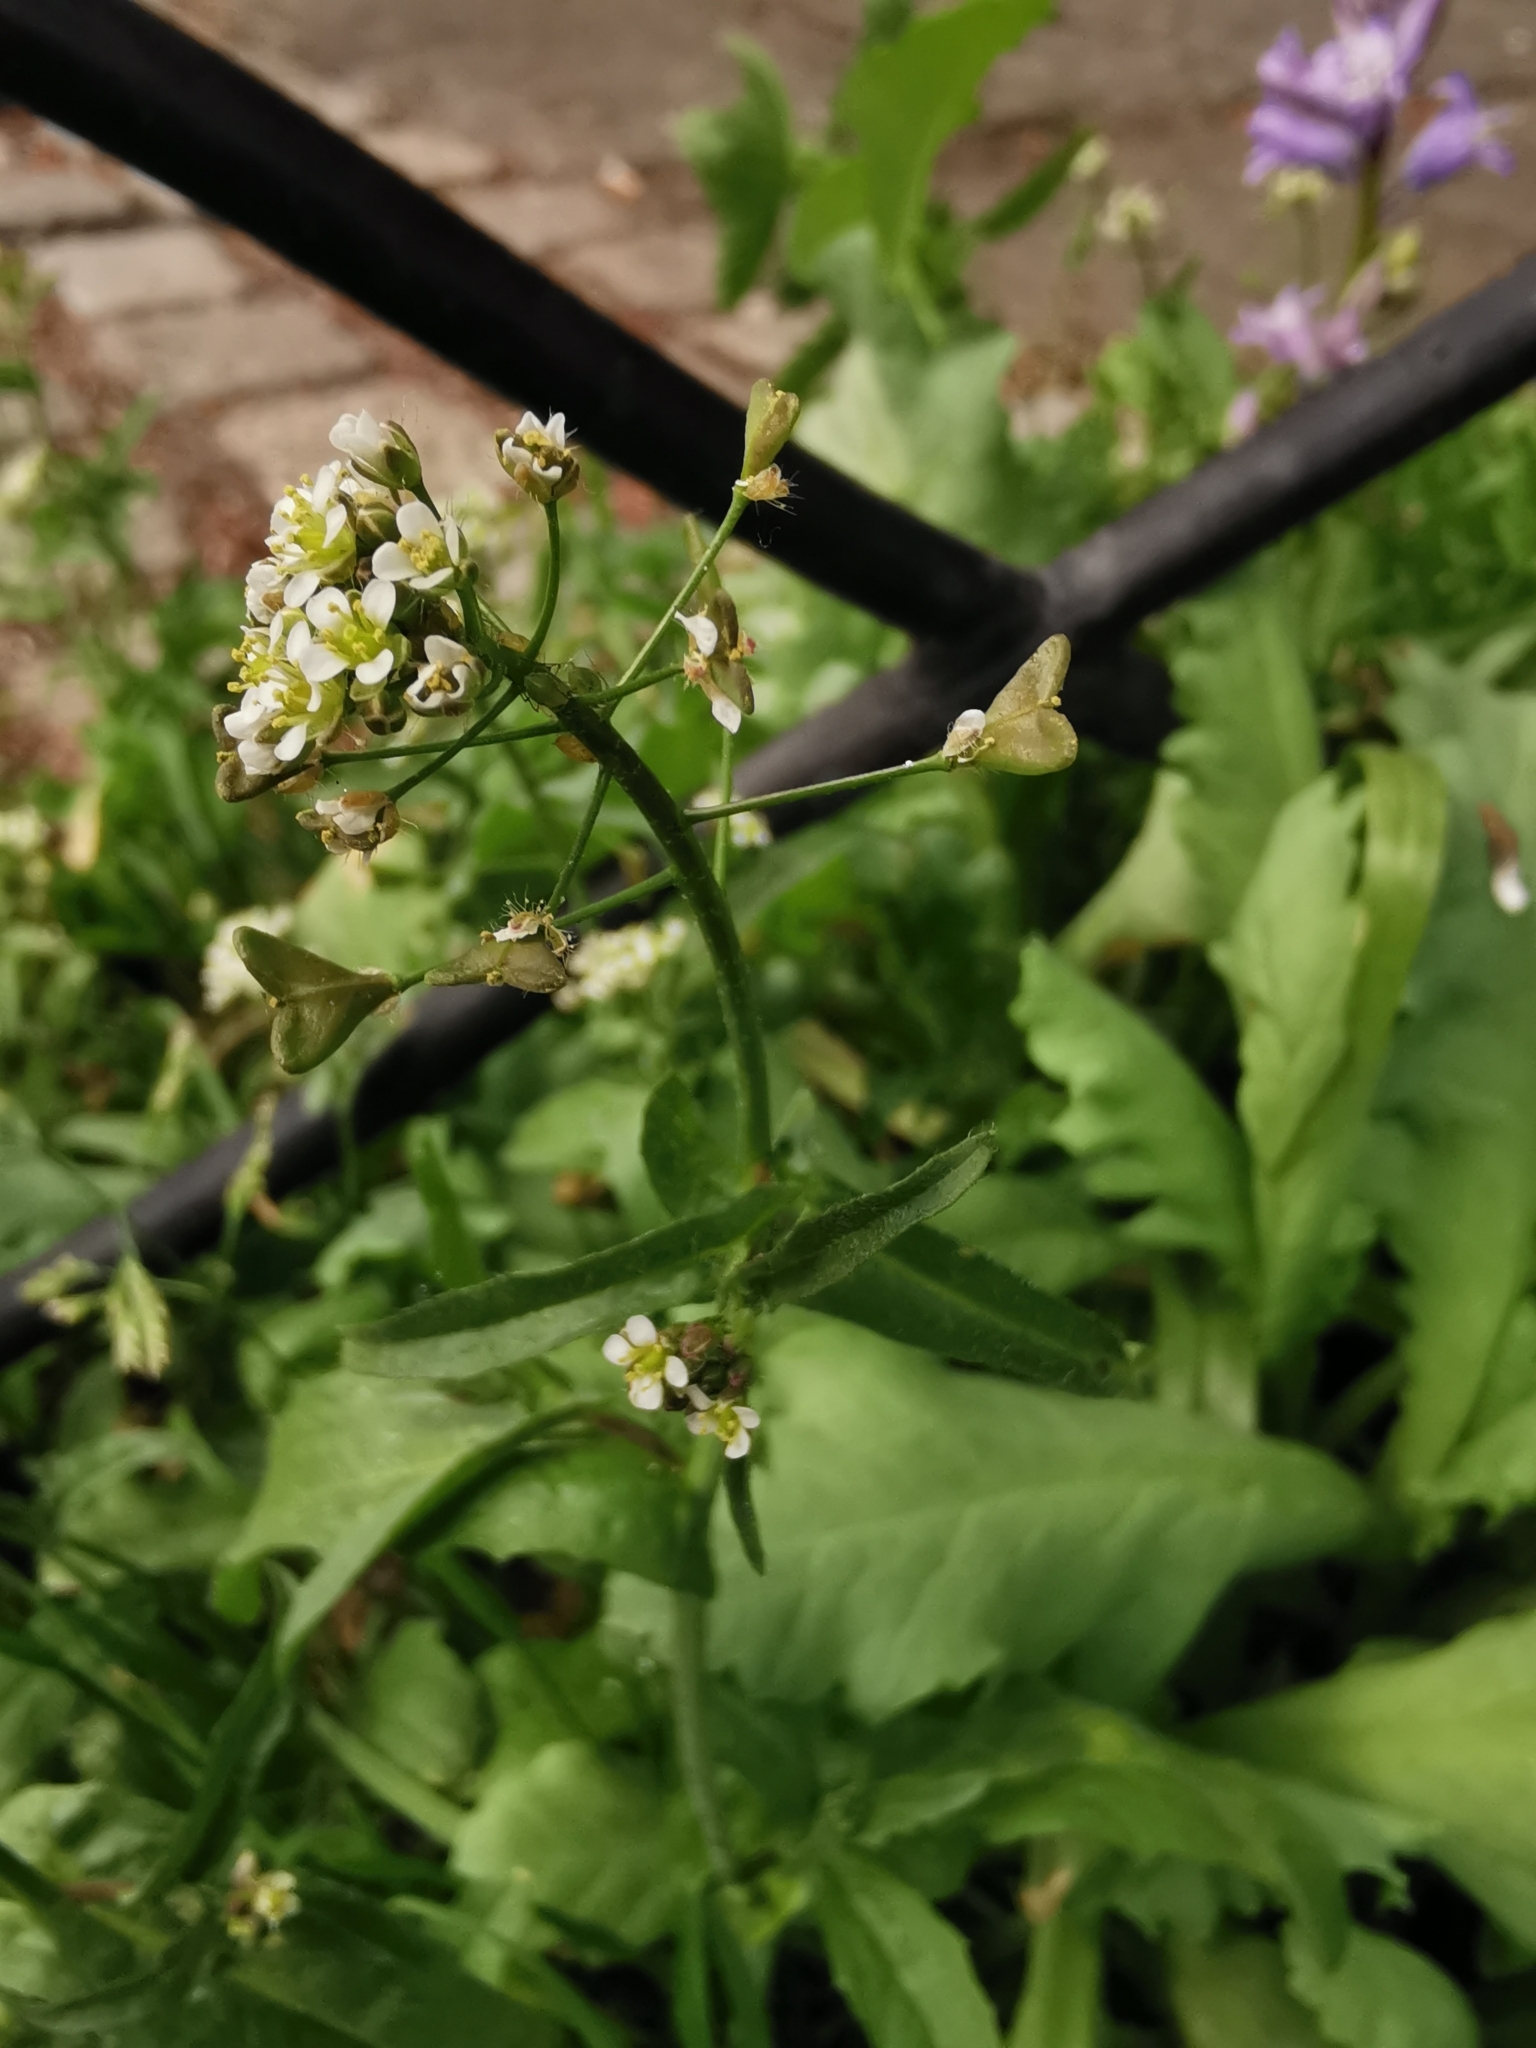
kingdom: Plantae
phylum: Tracheophyta
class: Magnoliopsida
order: Brassicales
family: Brassicaceae
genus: Capsella
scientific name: Capsella bursa-pastoris
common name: Shepherd's purse
